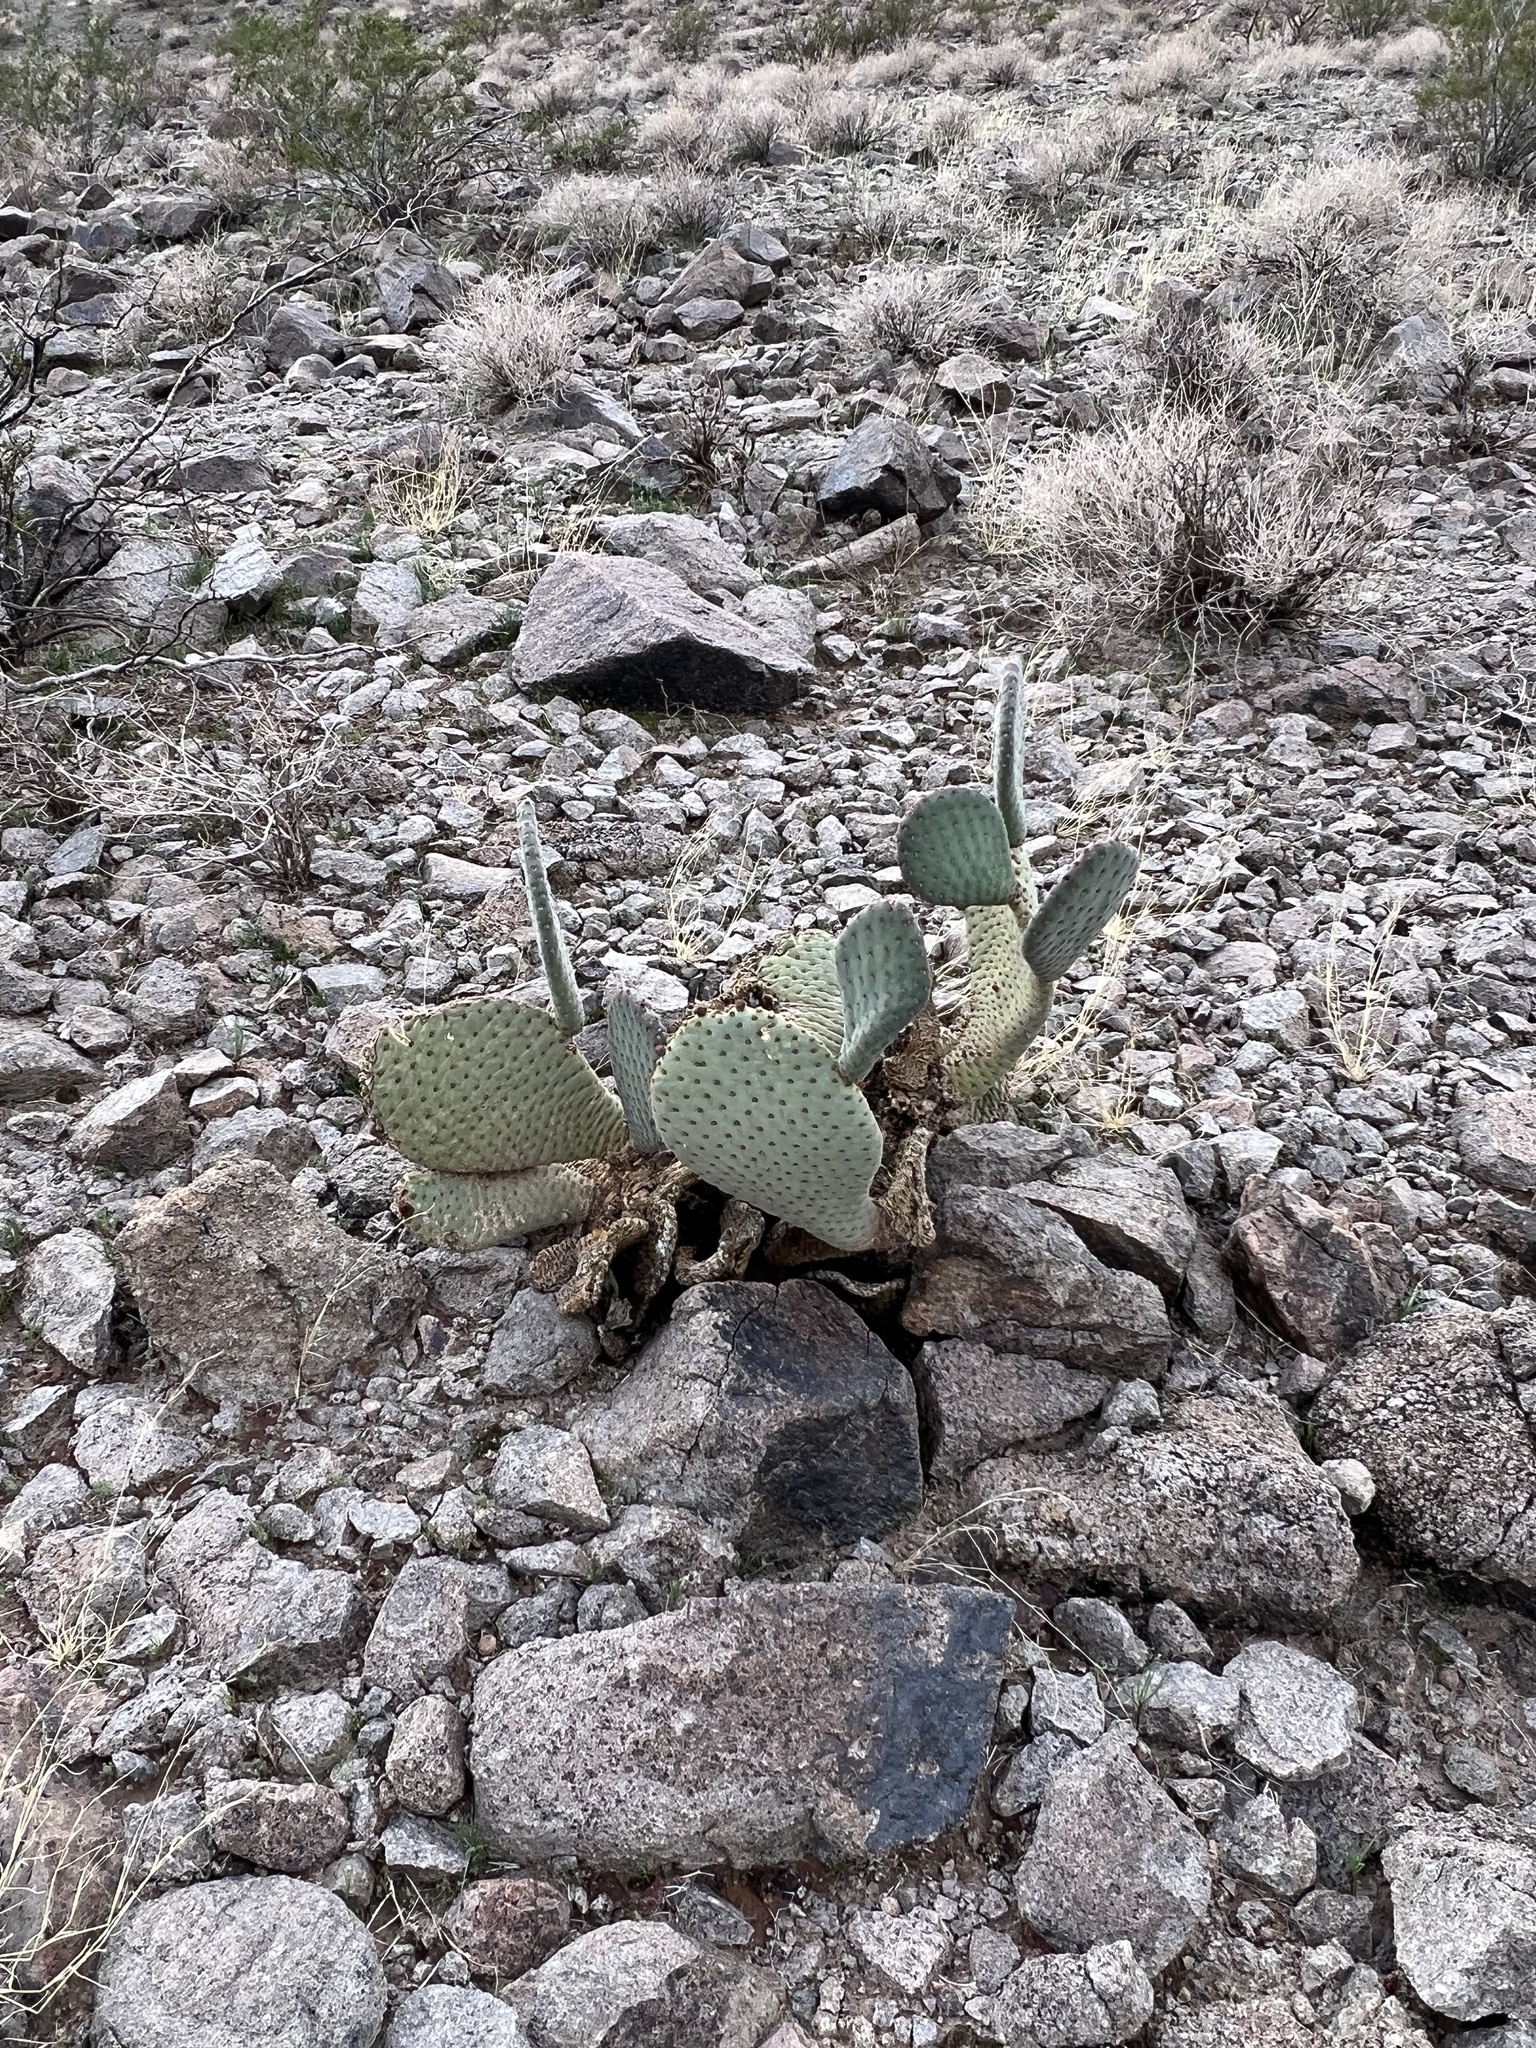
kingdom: Plantae
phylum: Tracheophyta
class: Magnoliopsida
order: Caryophyllales
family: Cactaceae
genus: Opuntia
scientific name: Opuntia basilaris
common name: Beavertail prickly-pear
